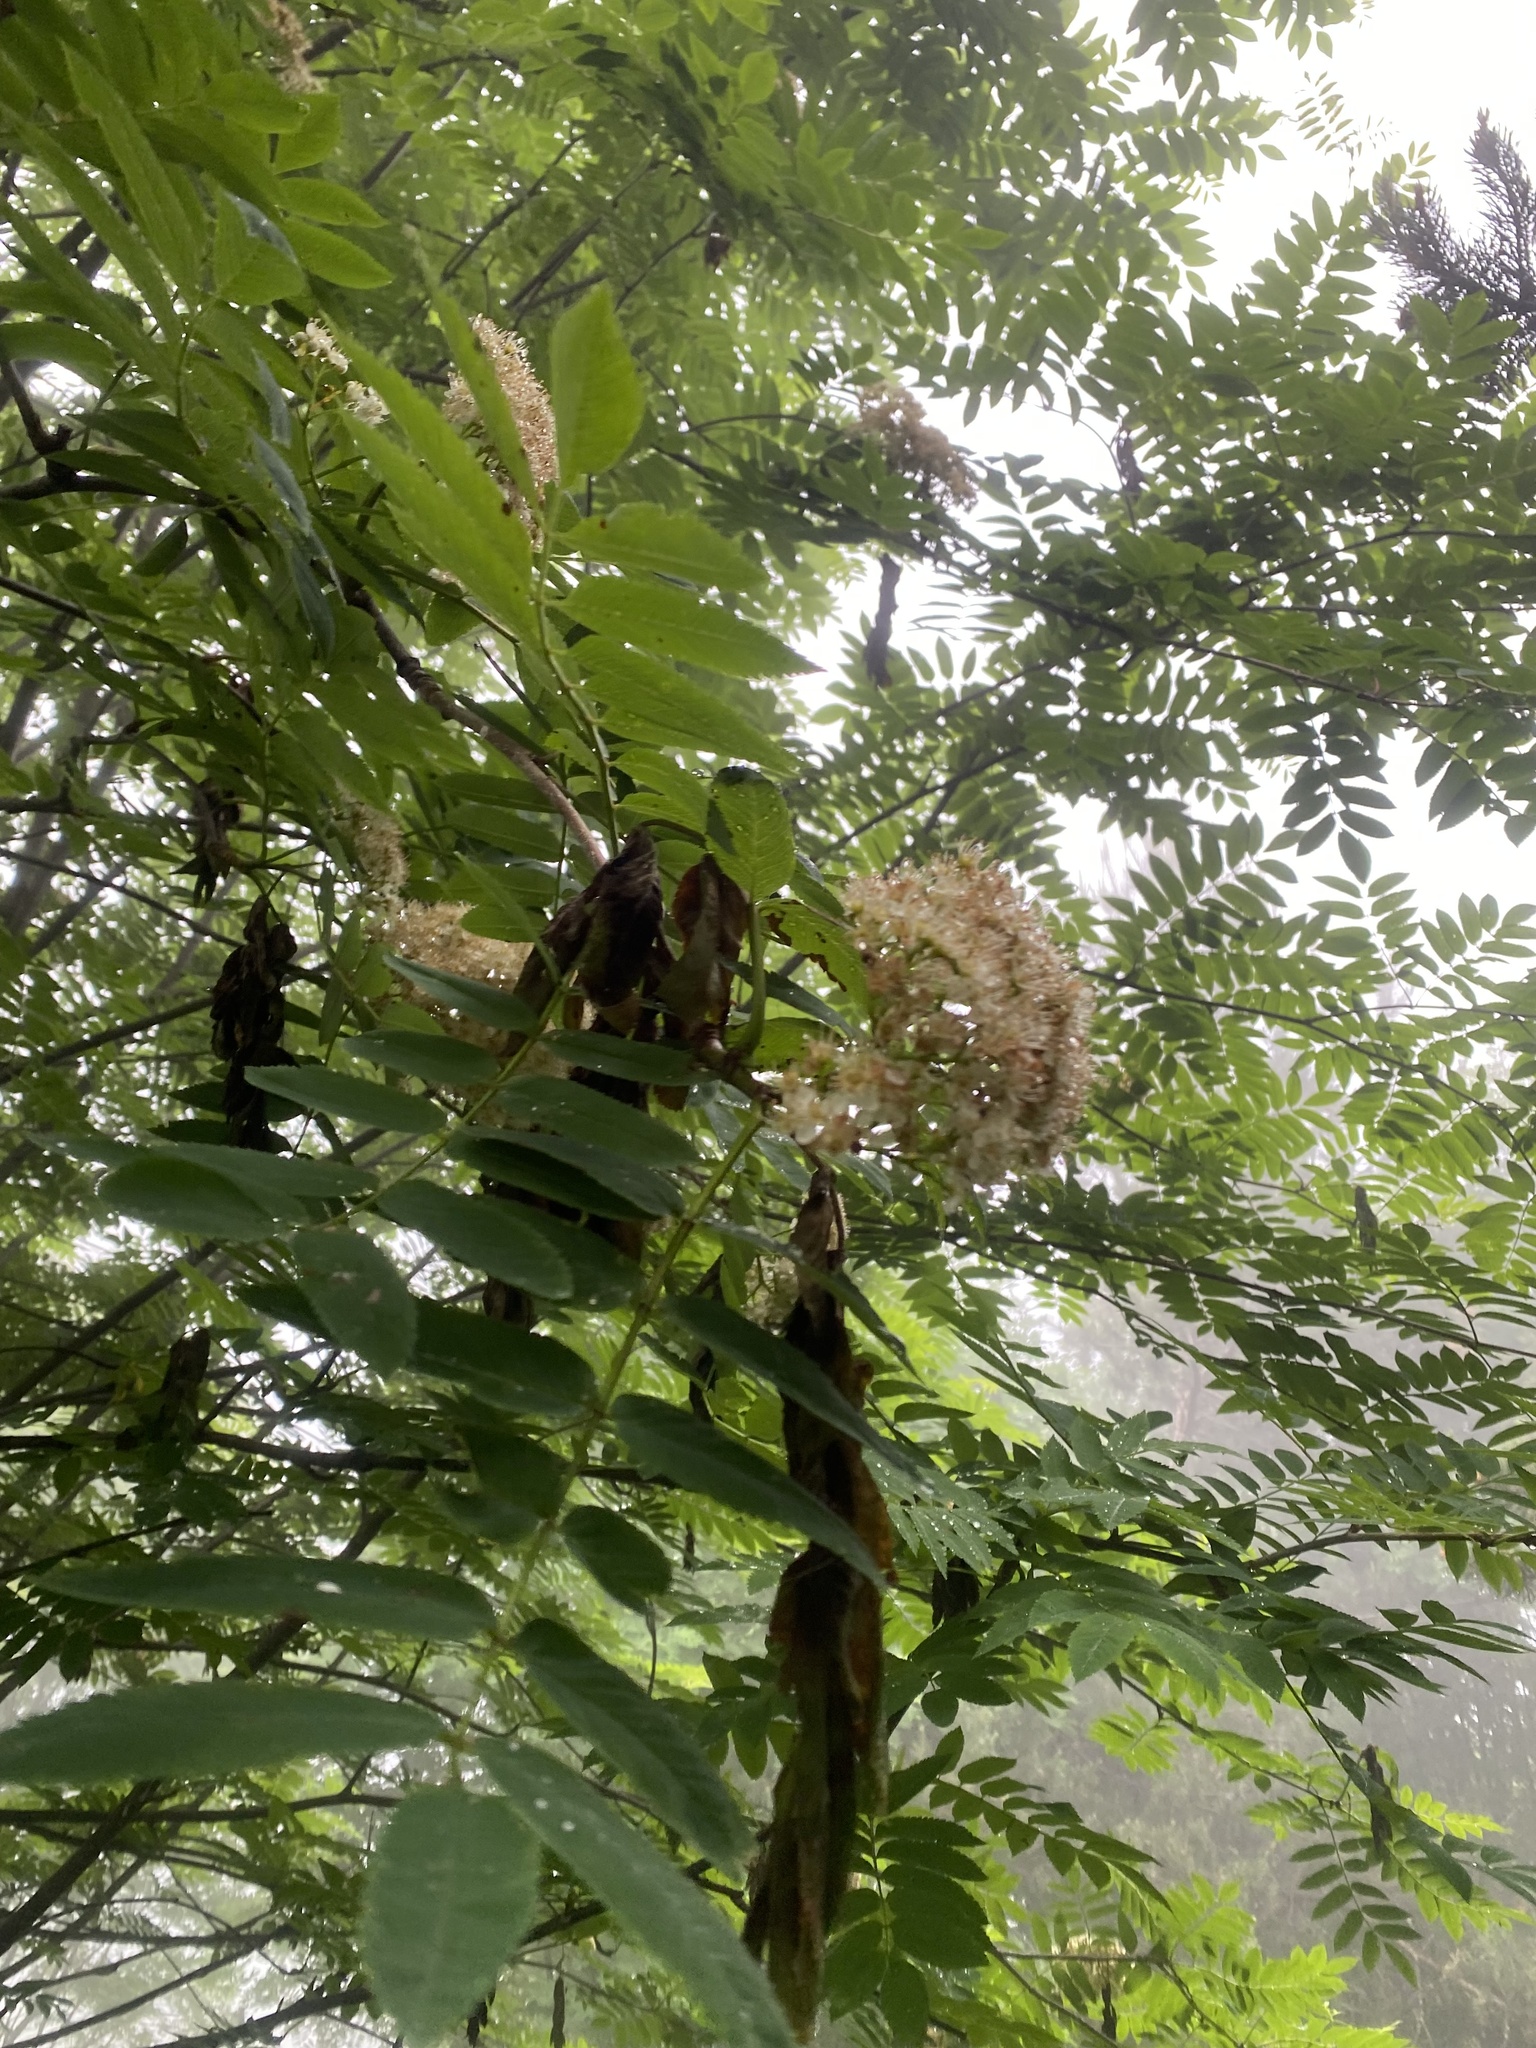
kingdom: Plantae
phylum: Tracheophyta
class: Magnoliopsida
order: Rosales
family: Rosaceae
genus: Sorbus
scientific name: Sorbus aucuparia
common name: Rowan
